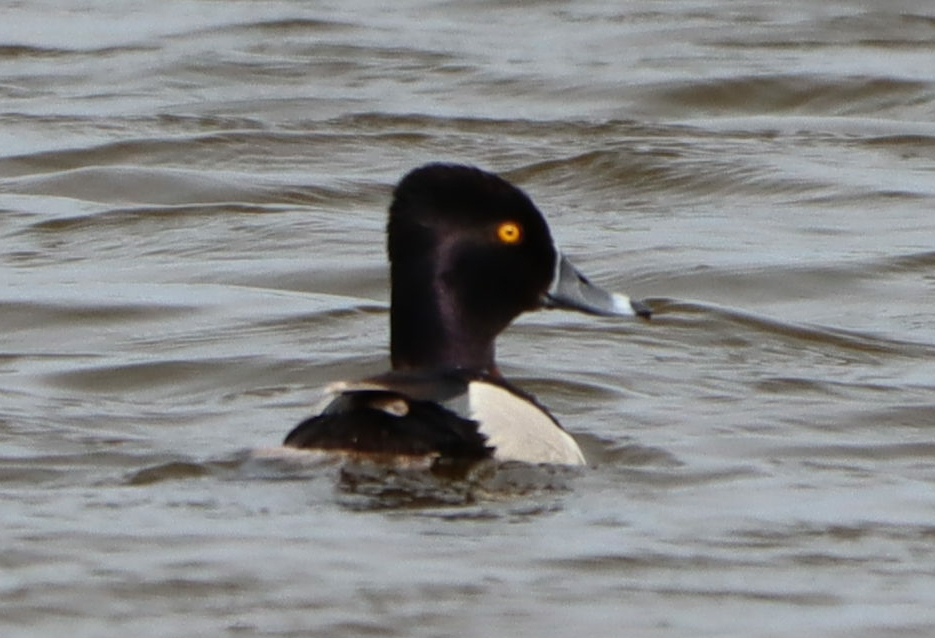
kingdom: Animalia
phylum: Chordata
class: Aves
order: Anseriformes
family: Anatidae
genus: Aythya
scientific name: Aythya collaris
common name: Ring-necked duck
